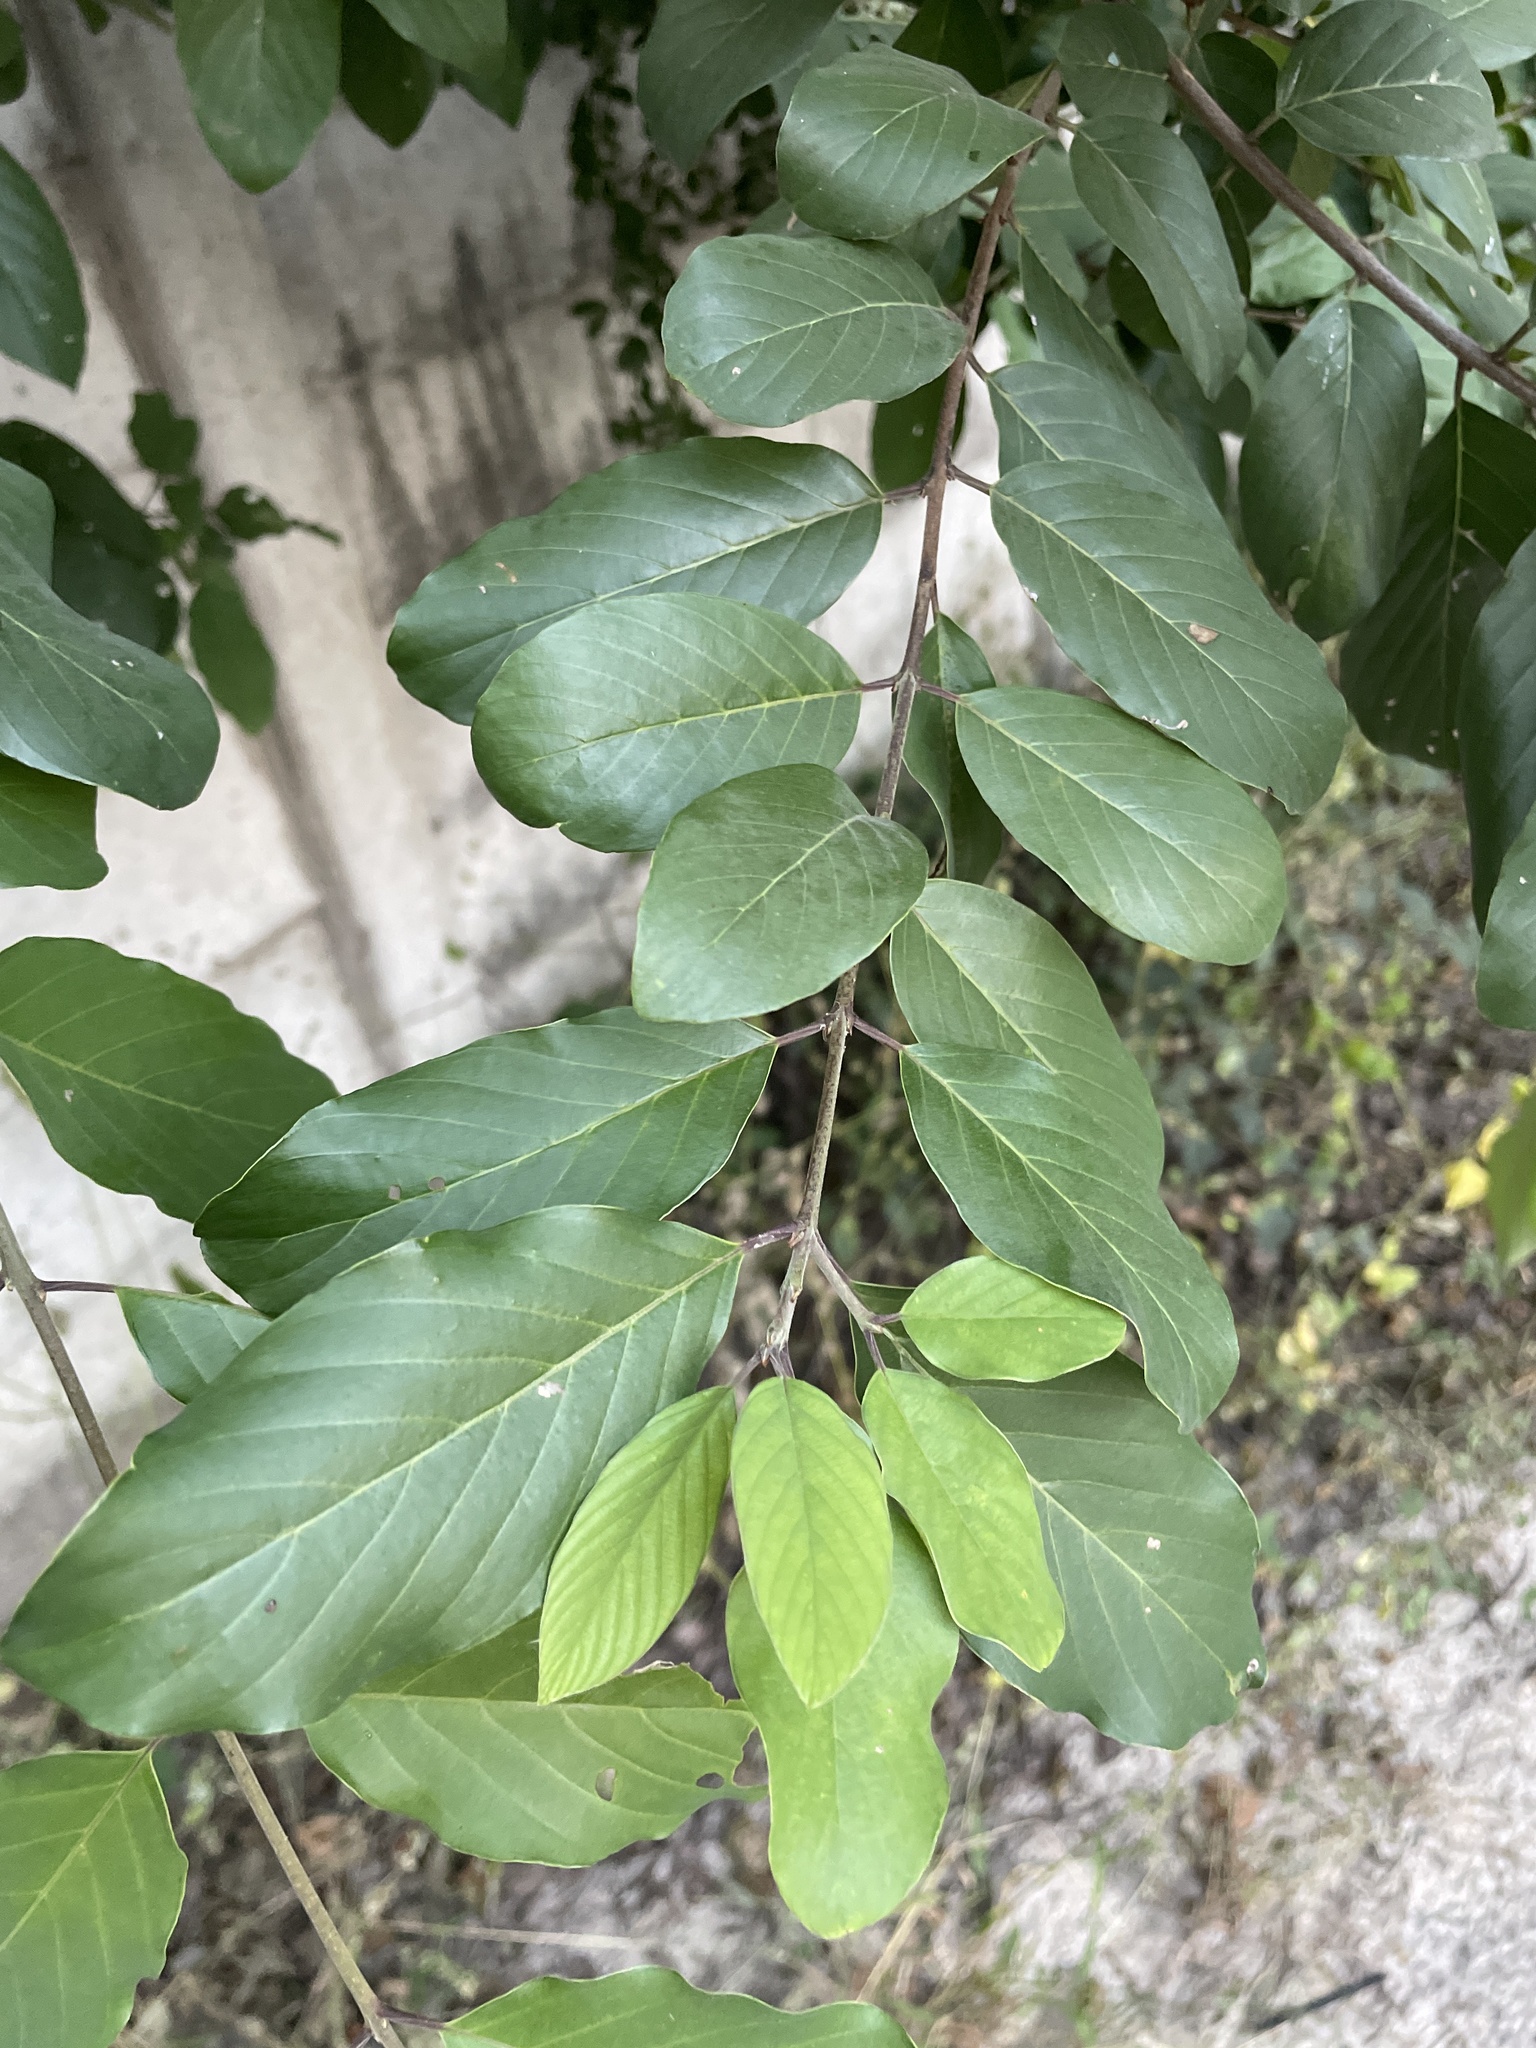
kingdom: Plantae
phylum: Tracheophyta
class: Magnoliopsida
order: Rosales
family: Rhamnaceae
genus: Phyllogeiton
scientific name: Phyllogeiton discolor
